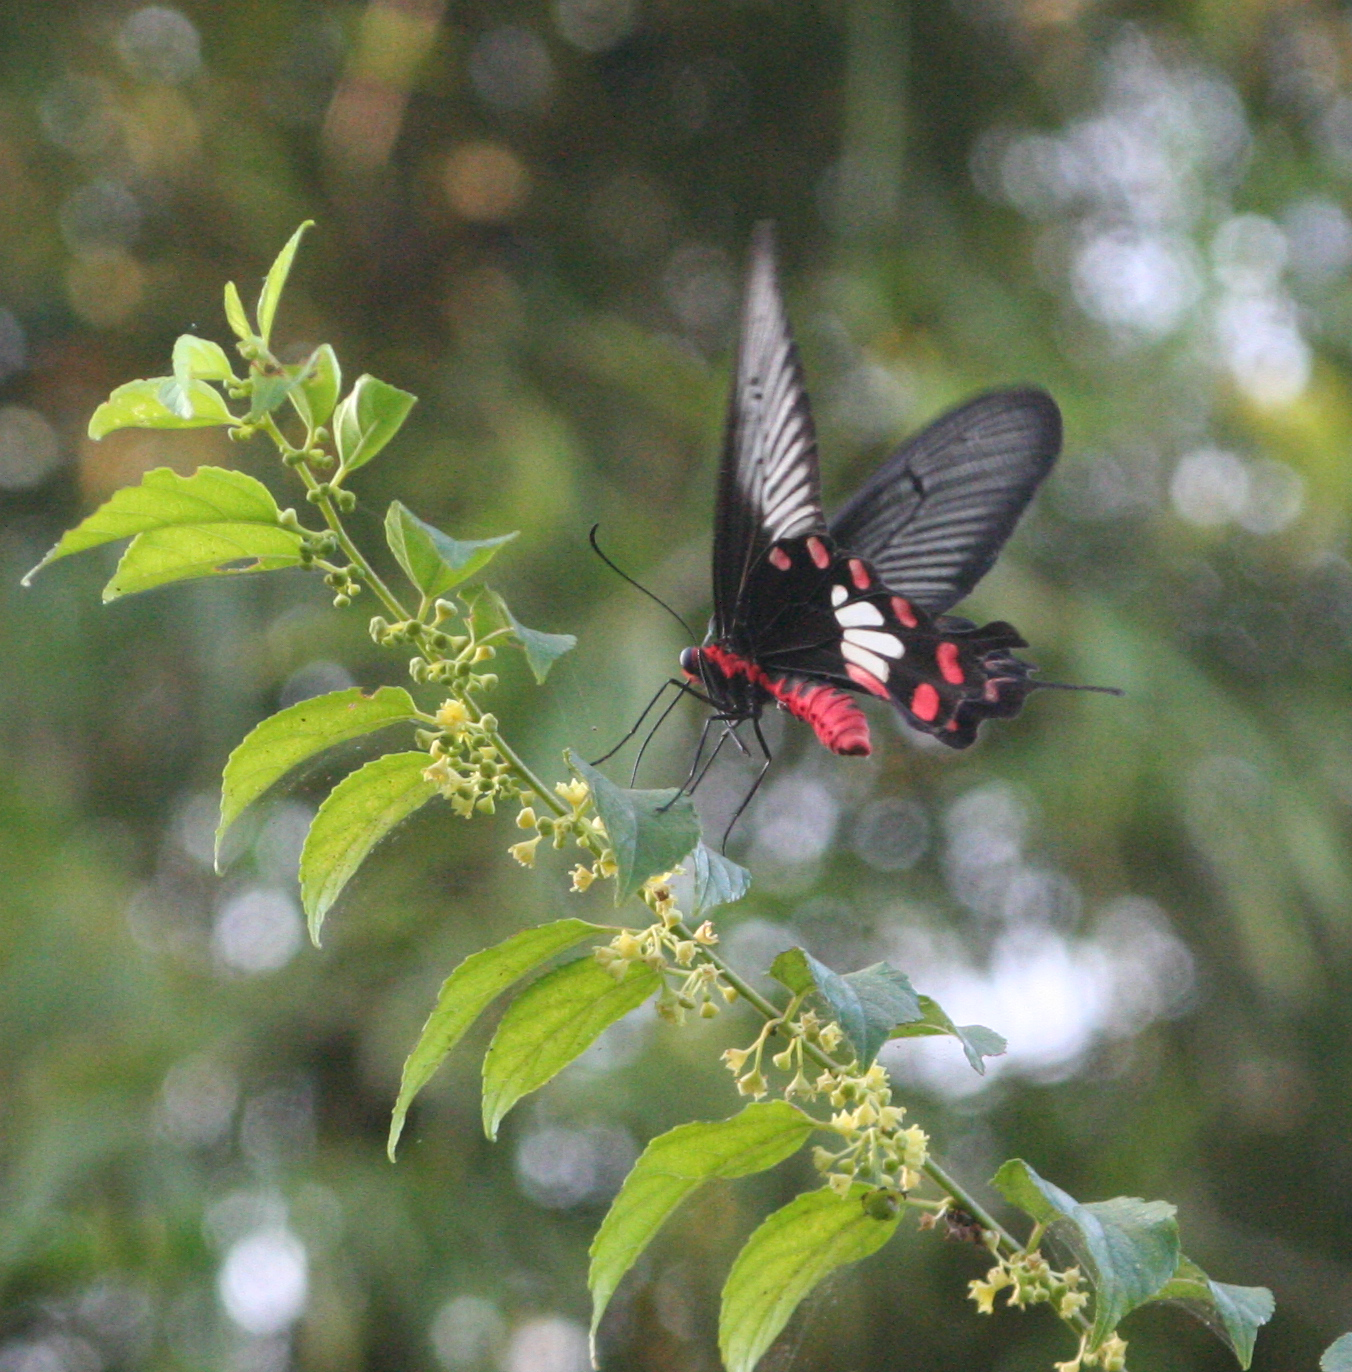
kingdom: Animalia
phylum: Arthropoda
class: Insecta
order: Lepidoptera
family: Papilionidae
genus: Pachliopta
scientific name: Pachliopta aristolochiae
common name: Common rose
